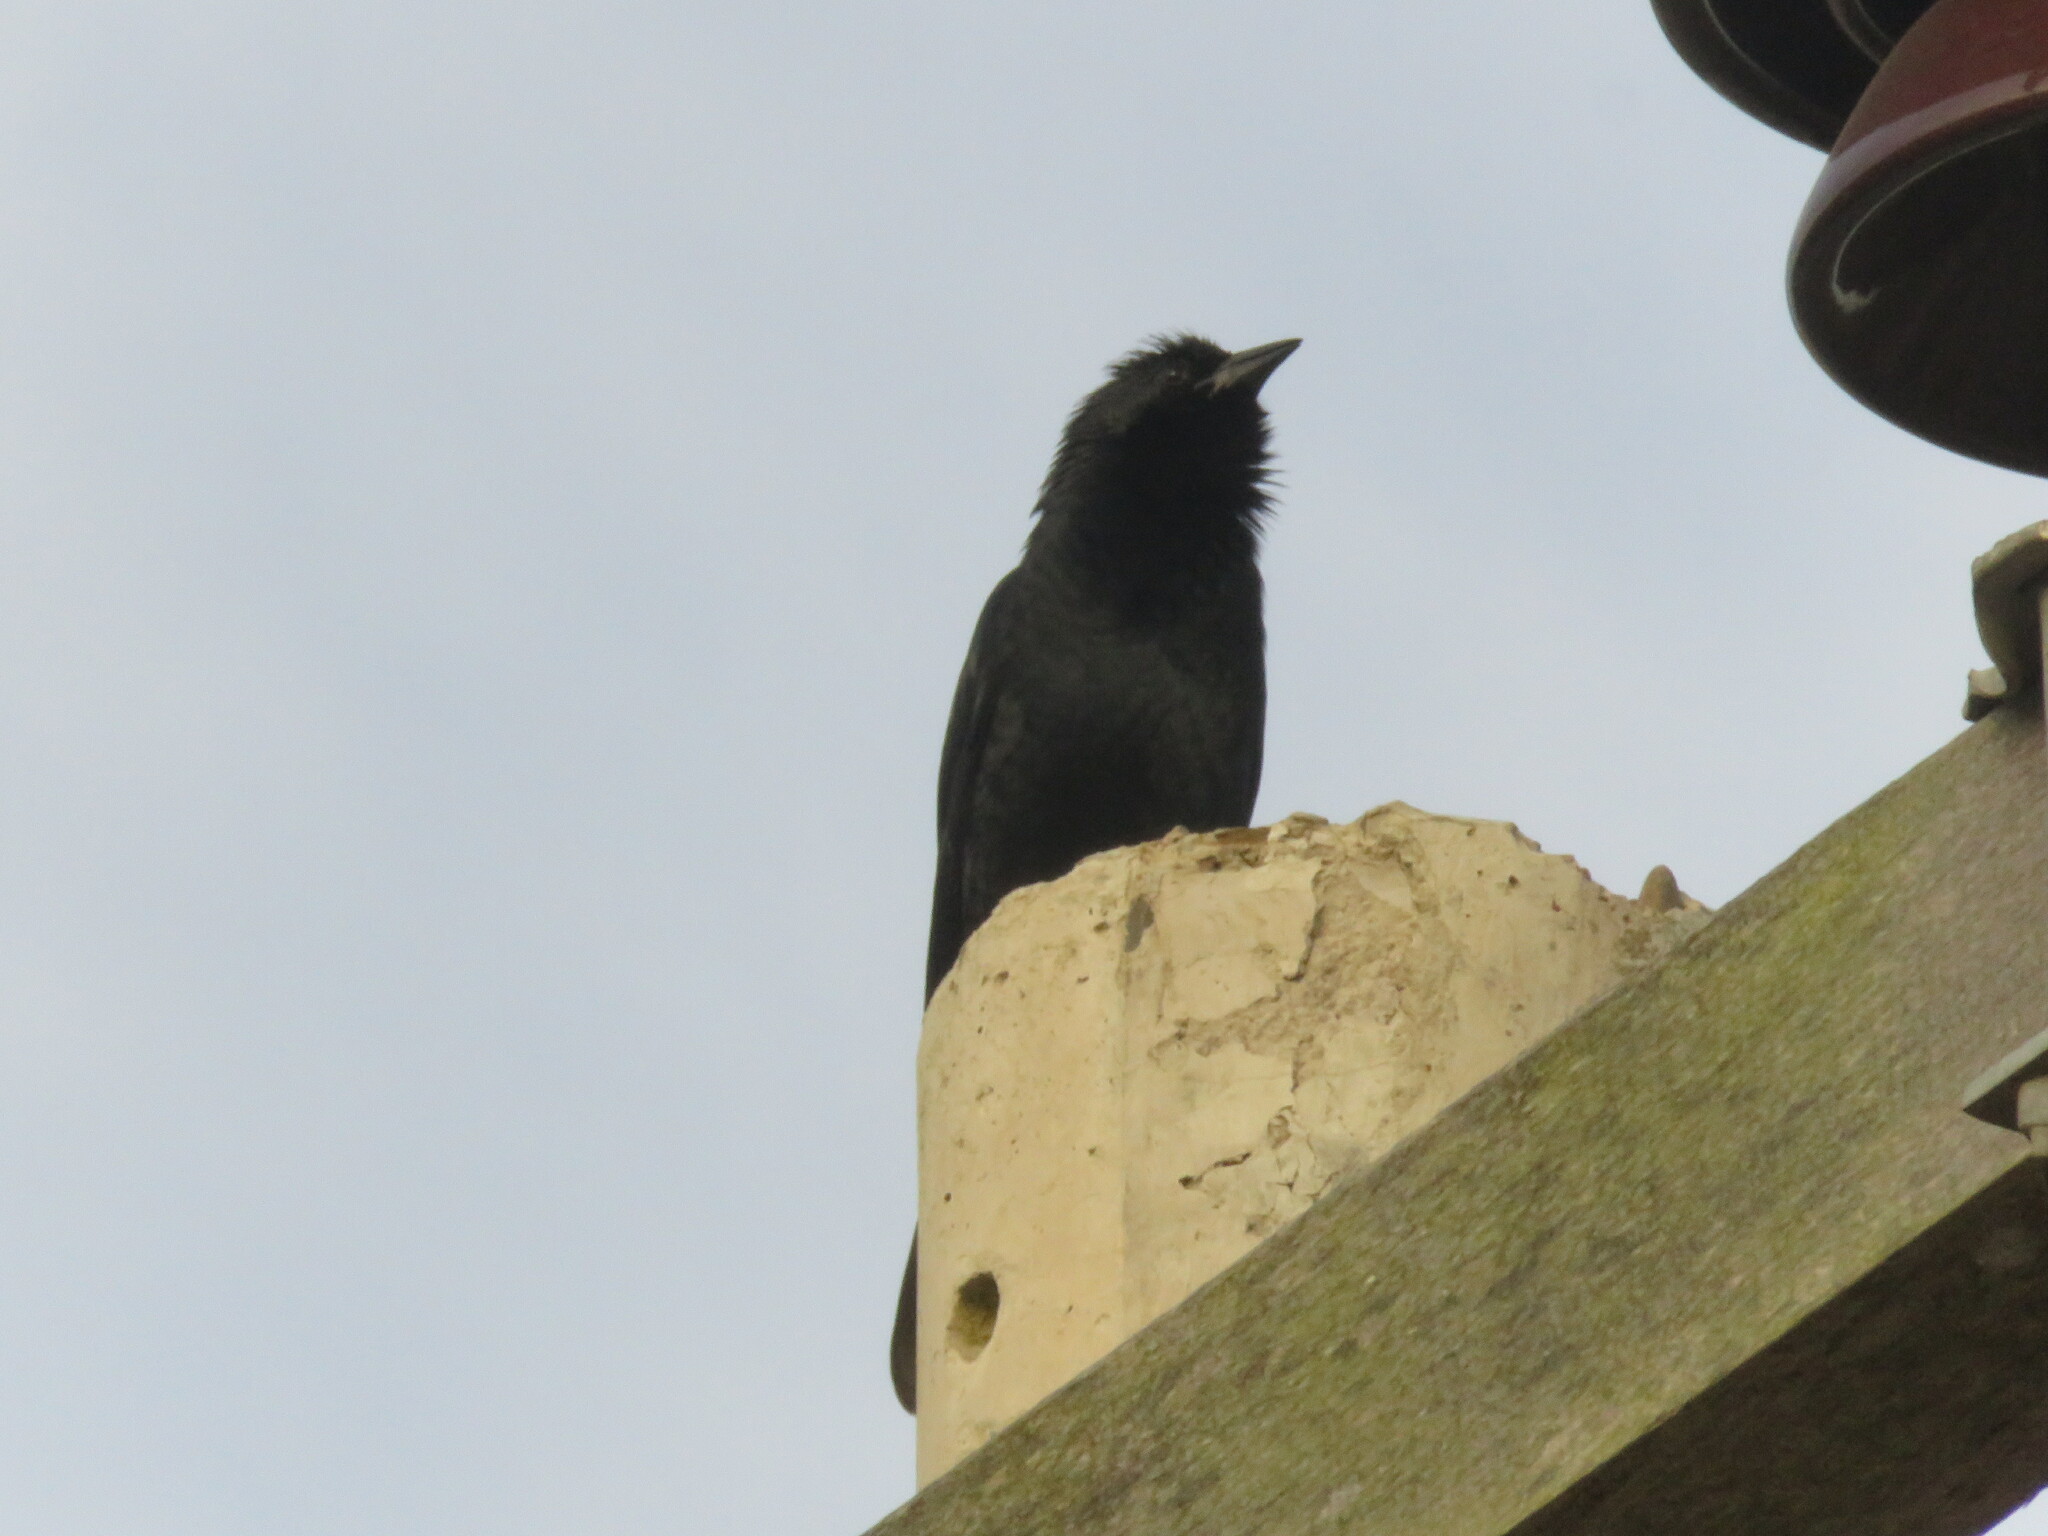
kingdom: Animalia
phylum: Chordata
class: Aves
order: Passeriformes
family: Icteridae
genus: Gnorimopsar
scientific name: Gnorimopsar chopi
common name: Chopi blackbird
